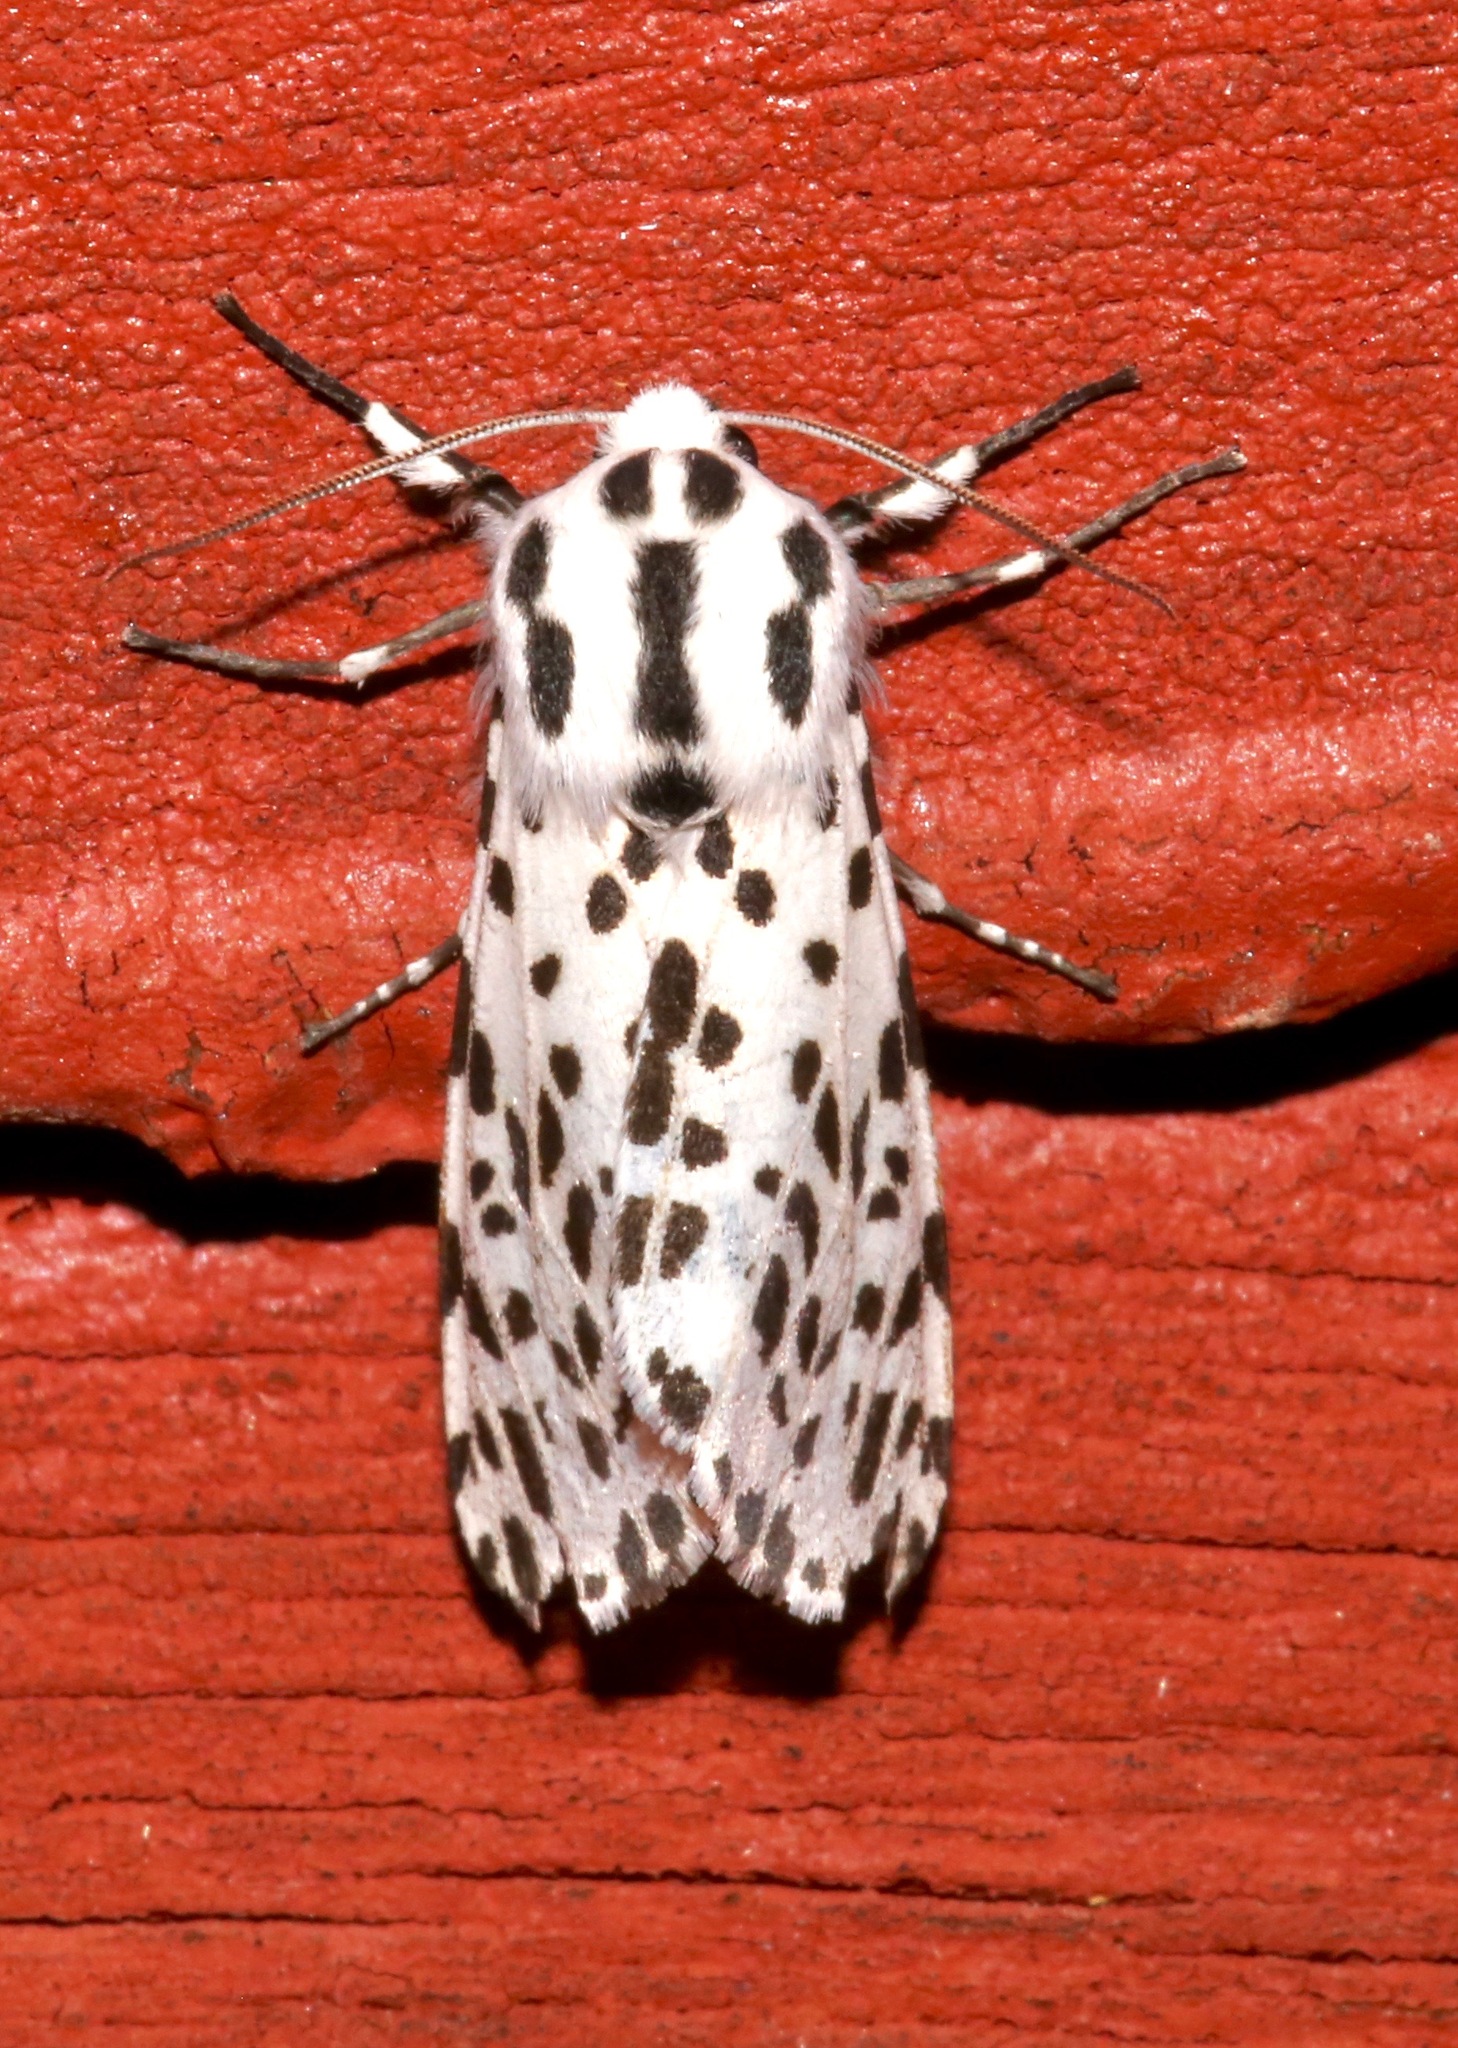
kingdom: Animalia
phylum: Arthropoda
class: Insecta
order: Lepidoptera
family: Erebidae
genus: Hypercompe
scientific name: Hypercompe permaculata
